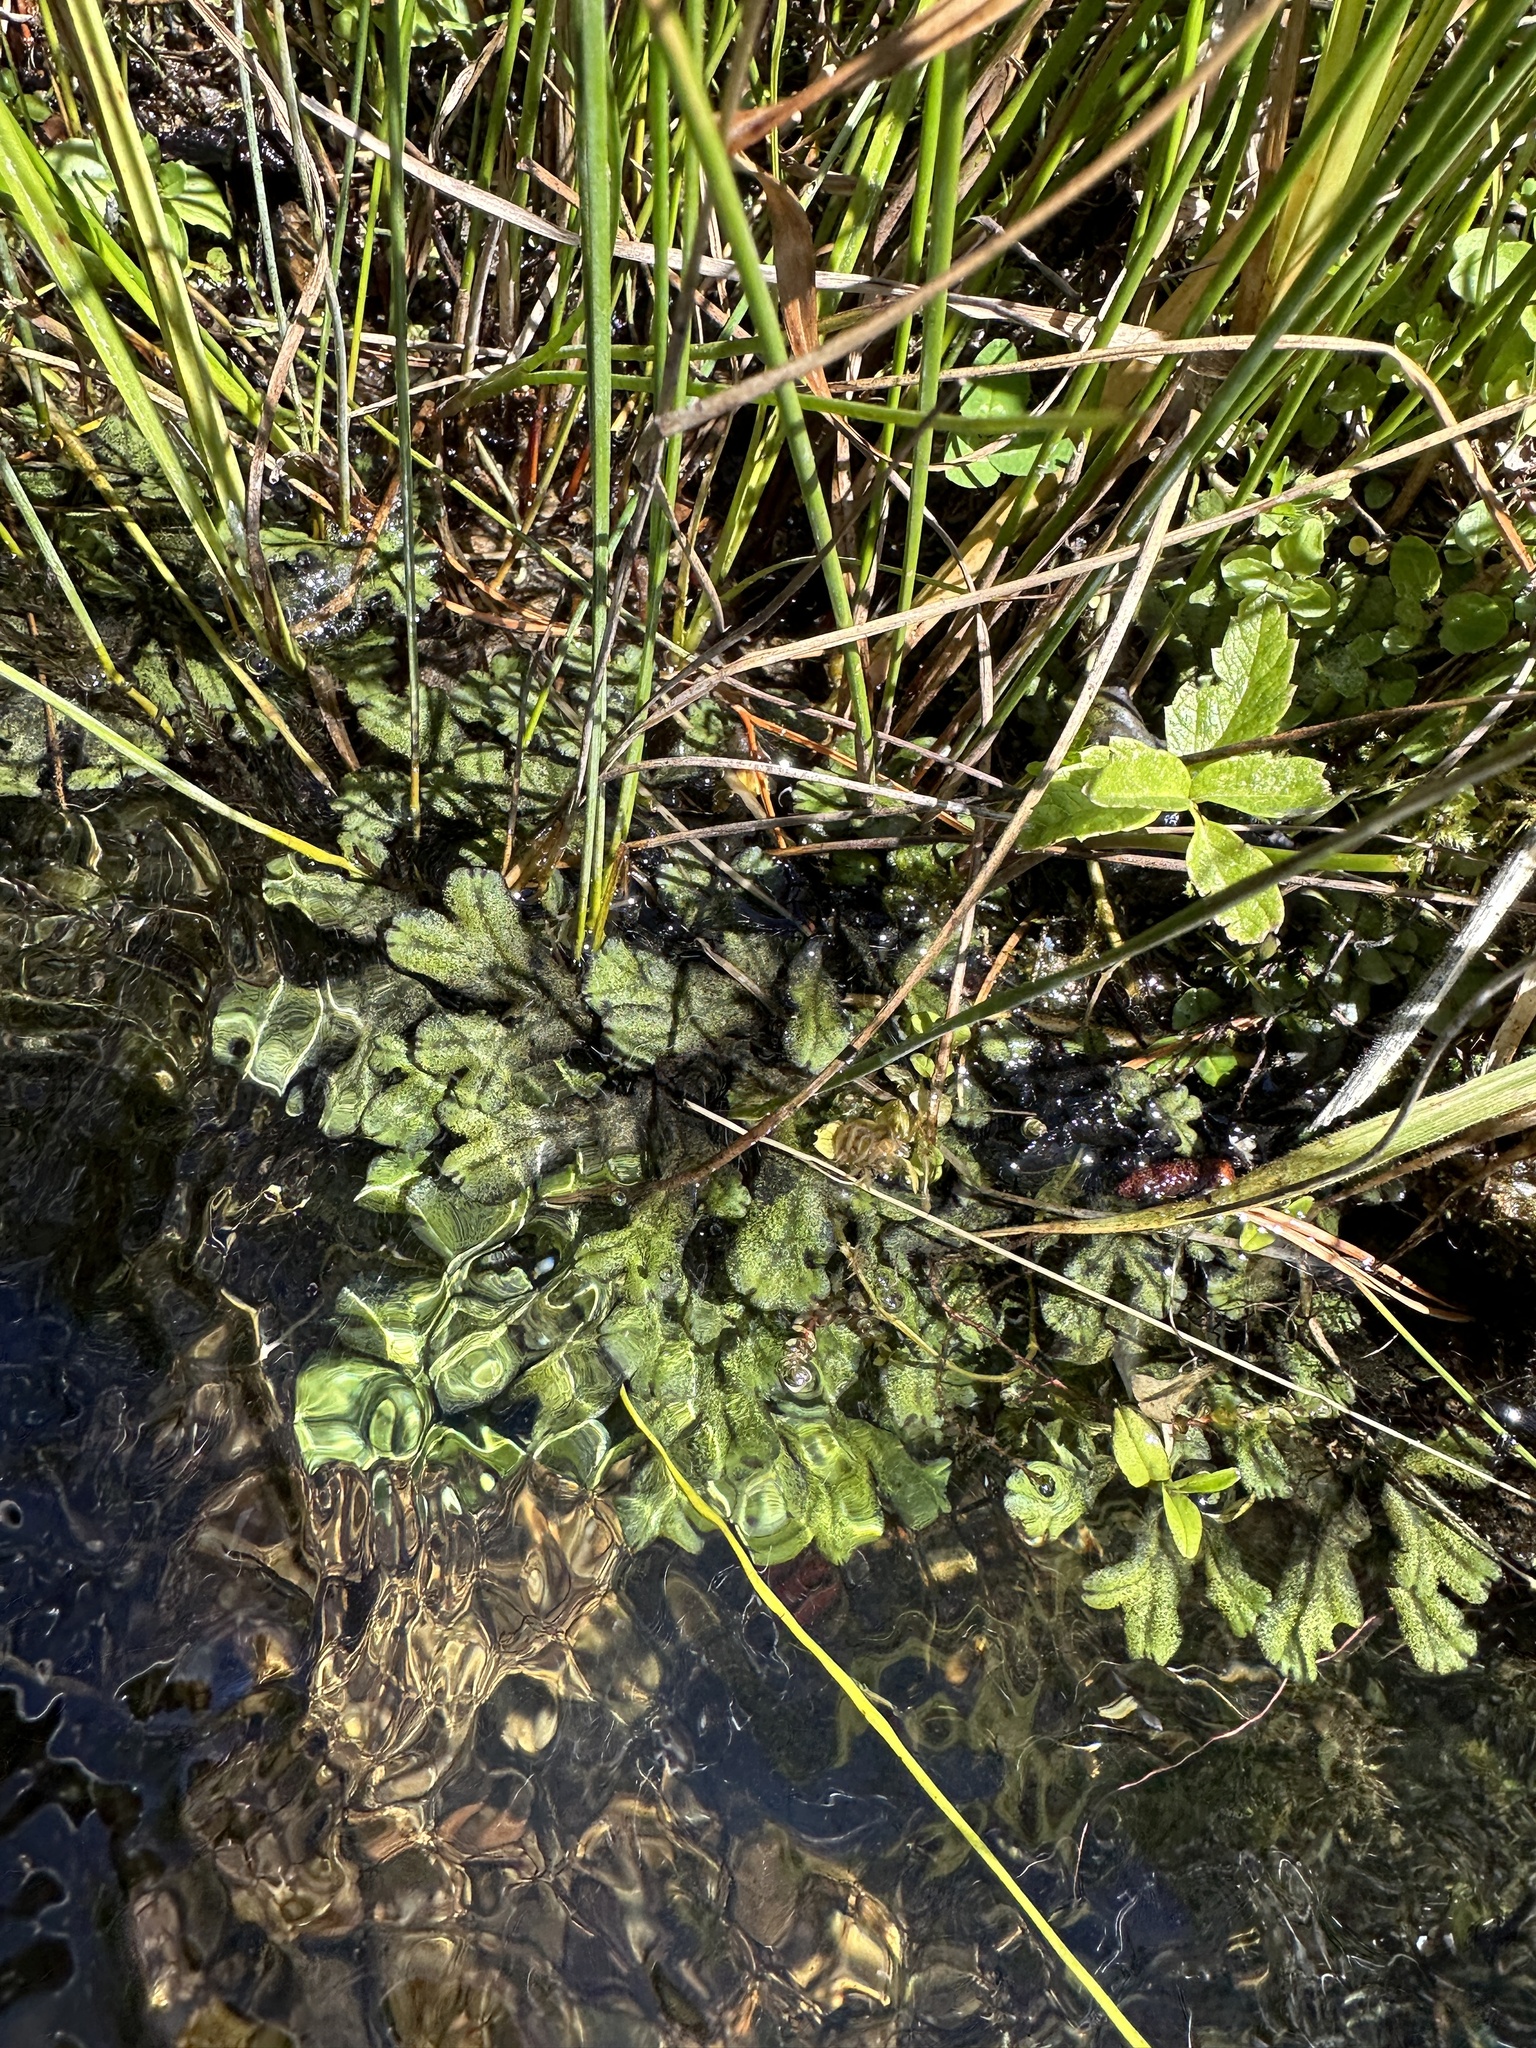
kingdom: Plantae
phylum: Marchantiophyta
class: Marchantiopsida
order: Marchantiales
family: Marchantiaceae
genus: Marchantia
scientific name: Marchantia polymorpha
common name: Common liverwort
